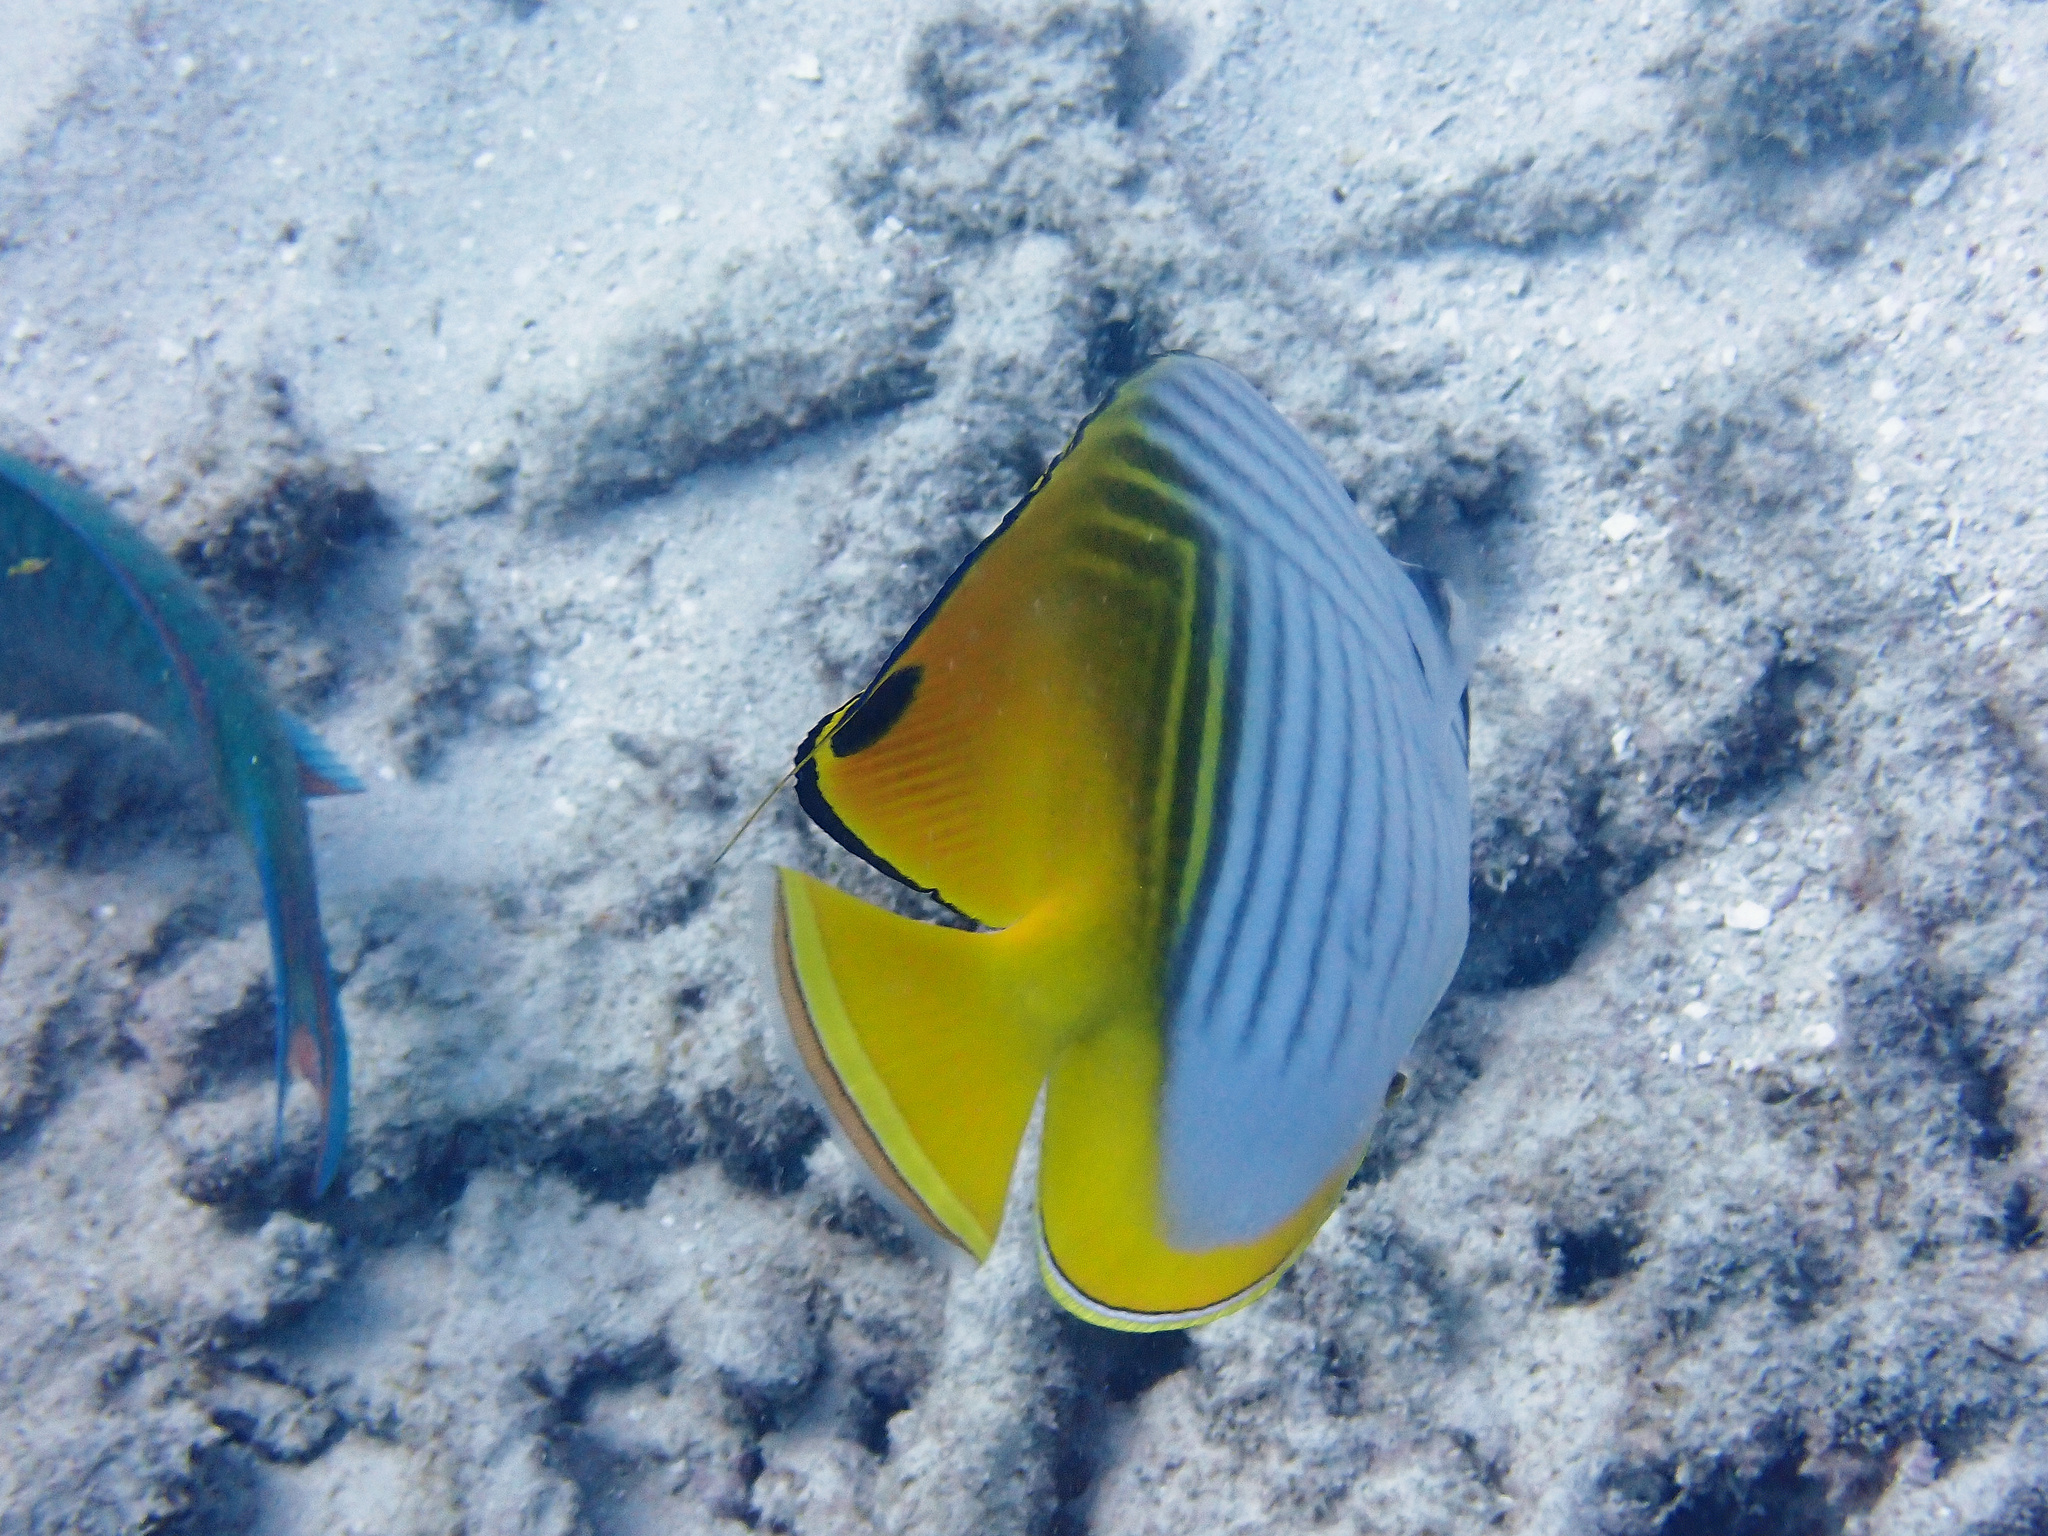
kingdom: Animalia
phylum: Chordata
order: Perciformes
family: Chaetodontidae
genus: Chaetodon
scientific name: Chaetodon auriga
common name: Threadfin butterflyfish
